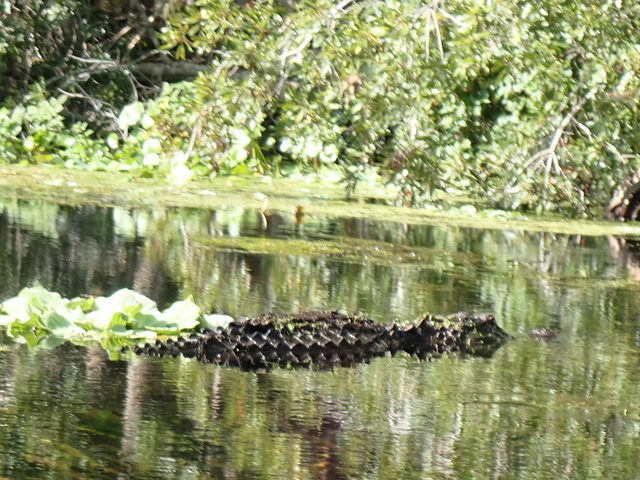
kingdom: Animalia
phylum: Chordata
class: Crocodylia
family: Alligatoridae
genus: Alligator
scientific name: Alligator mississippiensis
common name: American alligator
